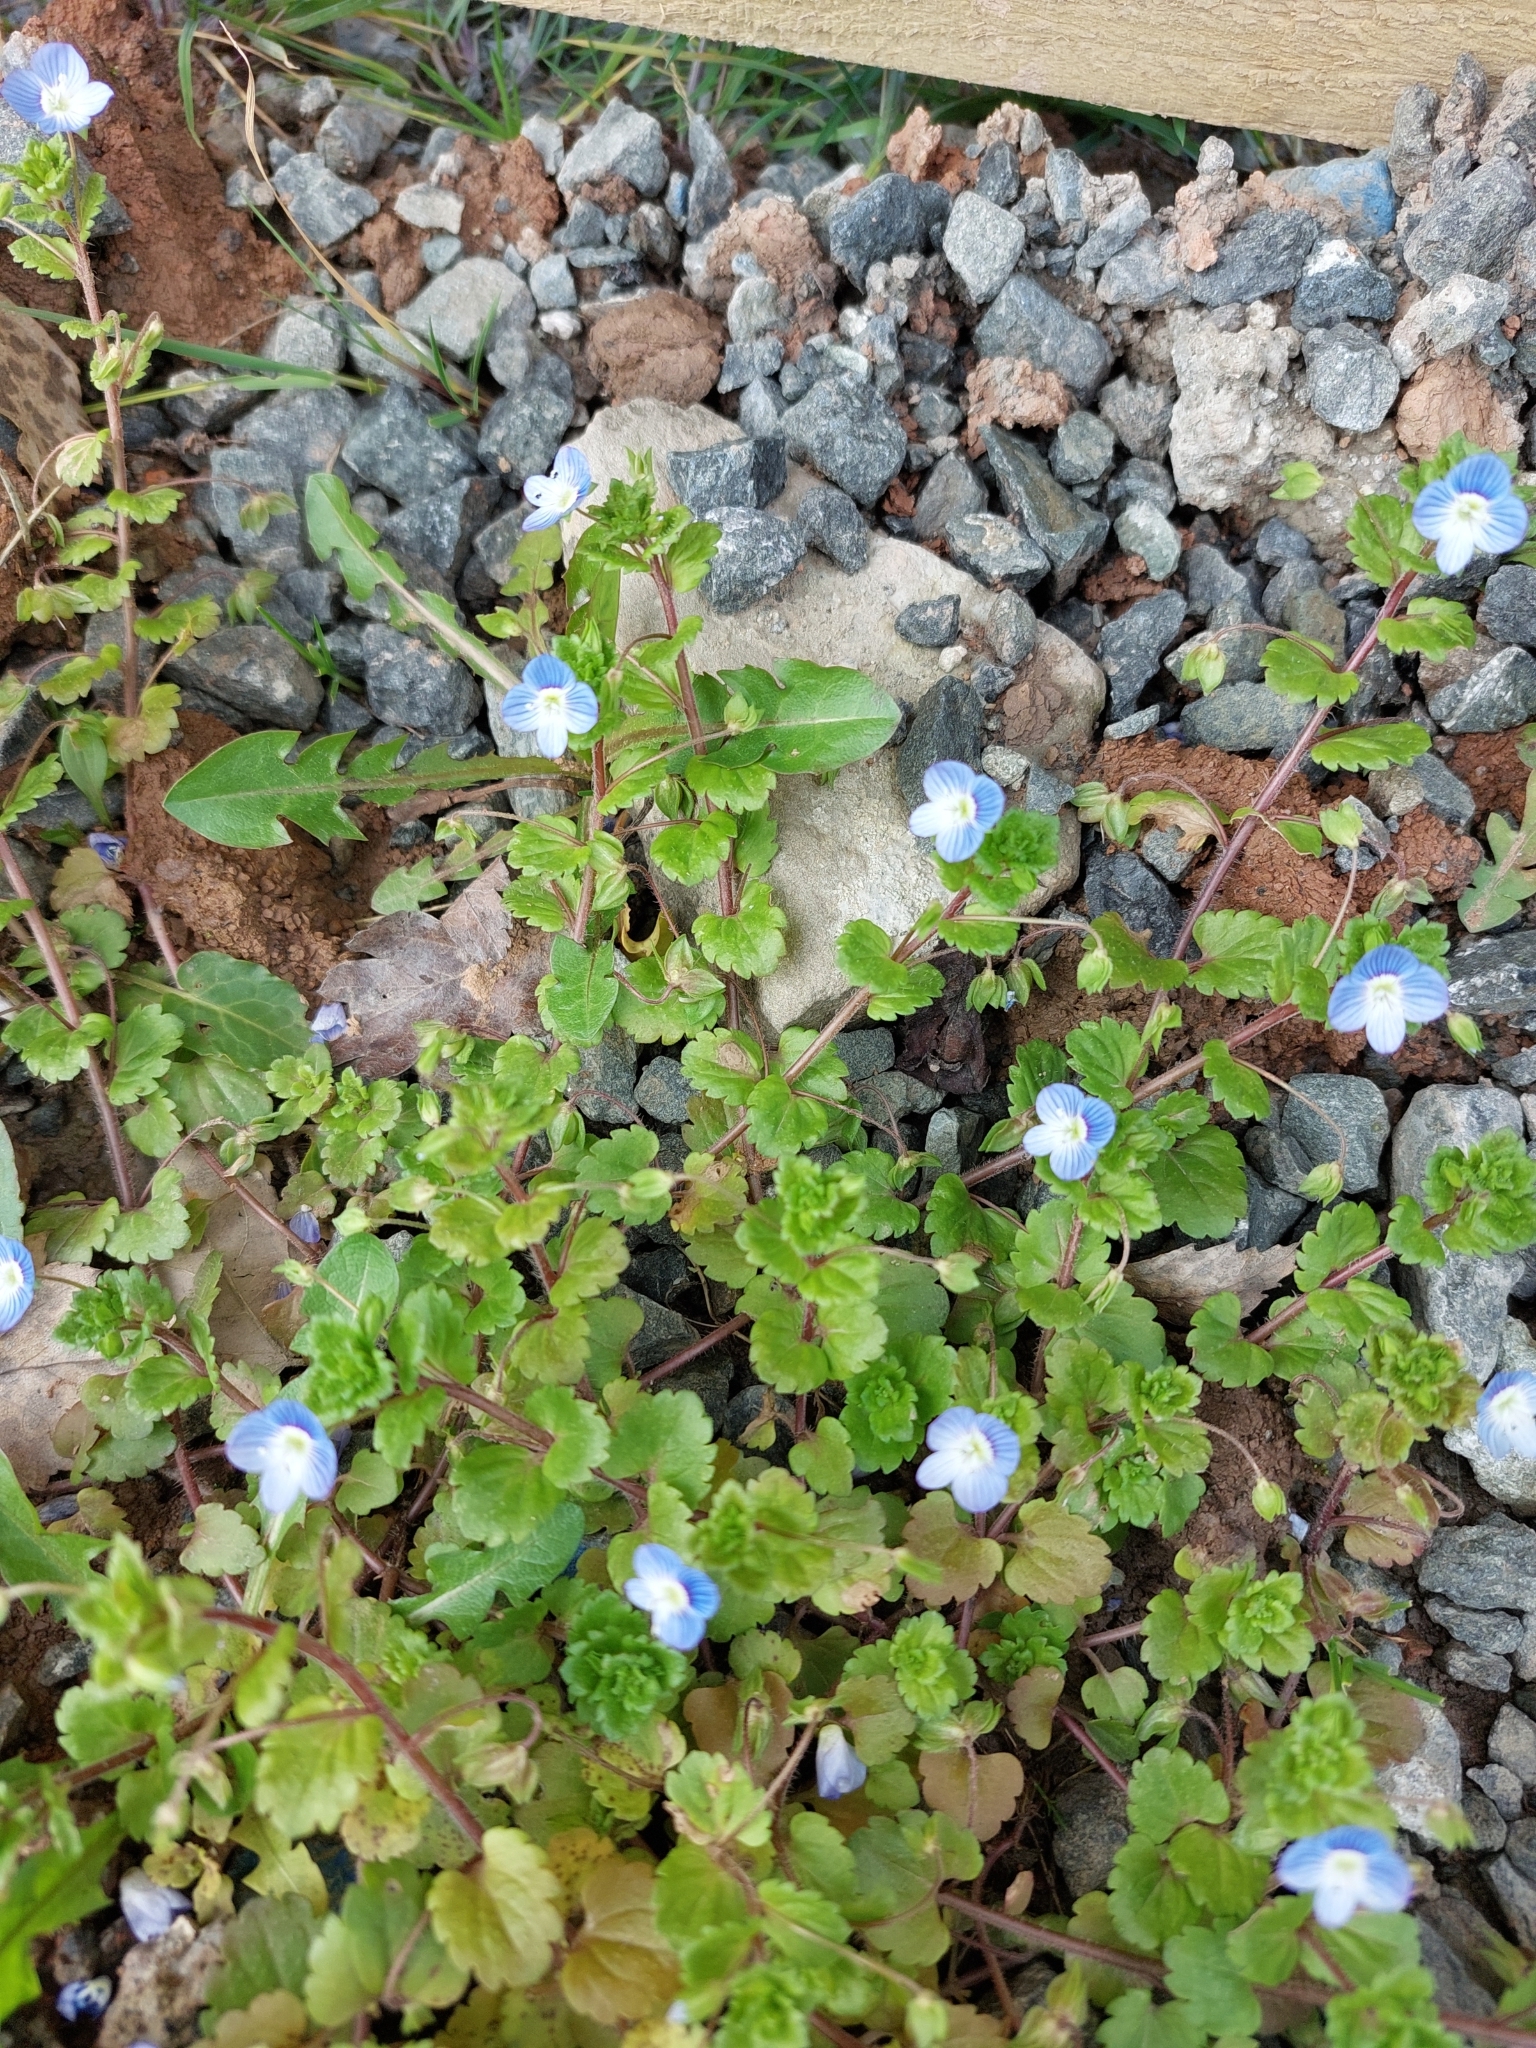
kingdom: Plantae
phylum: Tracheophyta
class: Magnoliopsida
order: Lamiales
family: Plantaginaceae
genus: Veronica
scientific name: Veronica persica
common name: Common field-speedwell
